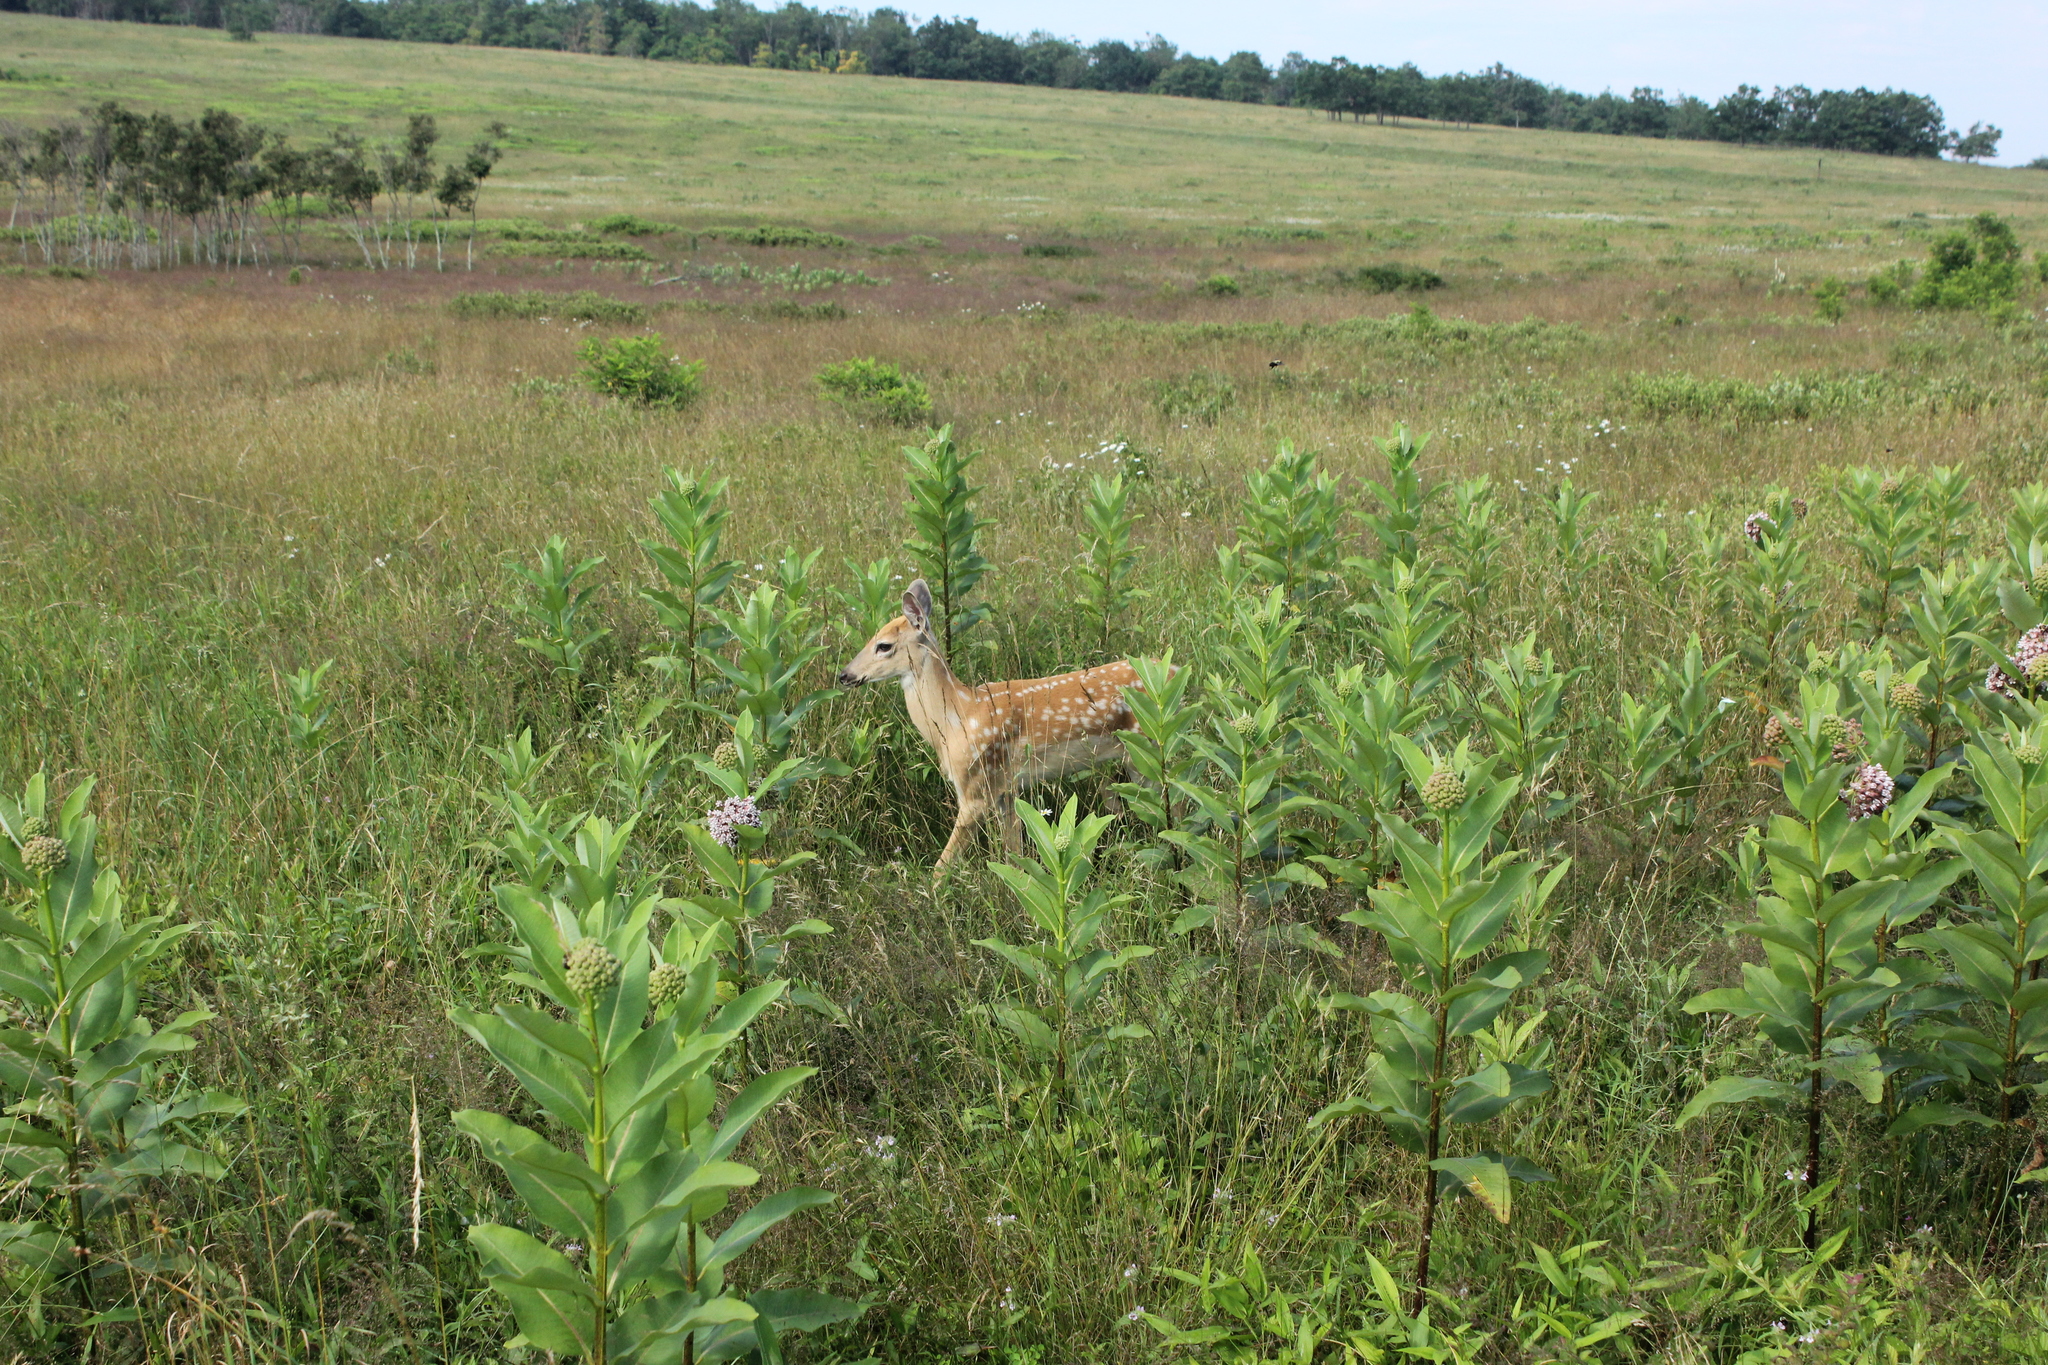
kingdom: Animalia
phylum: Chordata
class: Mammalia
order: Artiodactyla
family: Cervidae
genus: Odocoileus
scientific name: Odocoileus virginianus
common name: White-tailed deer
